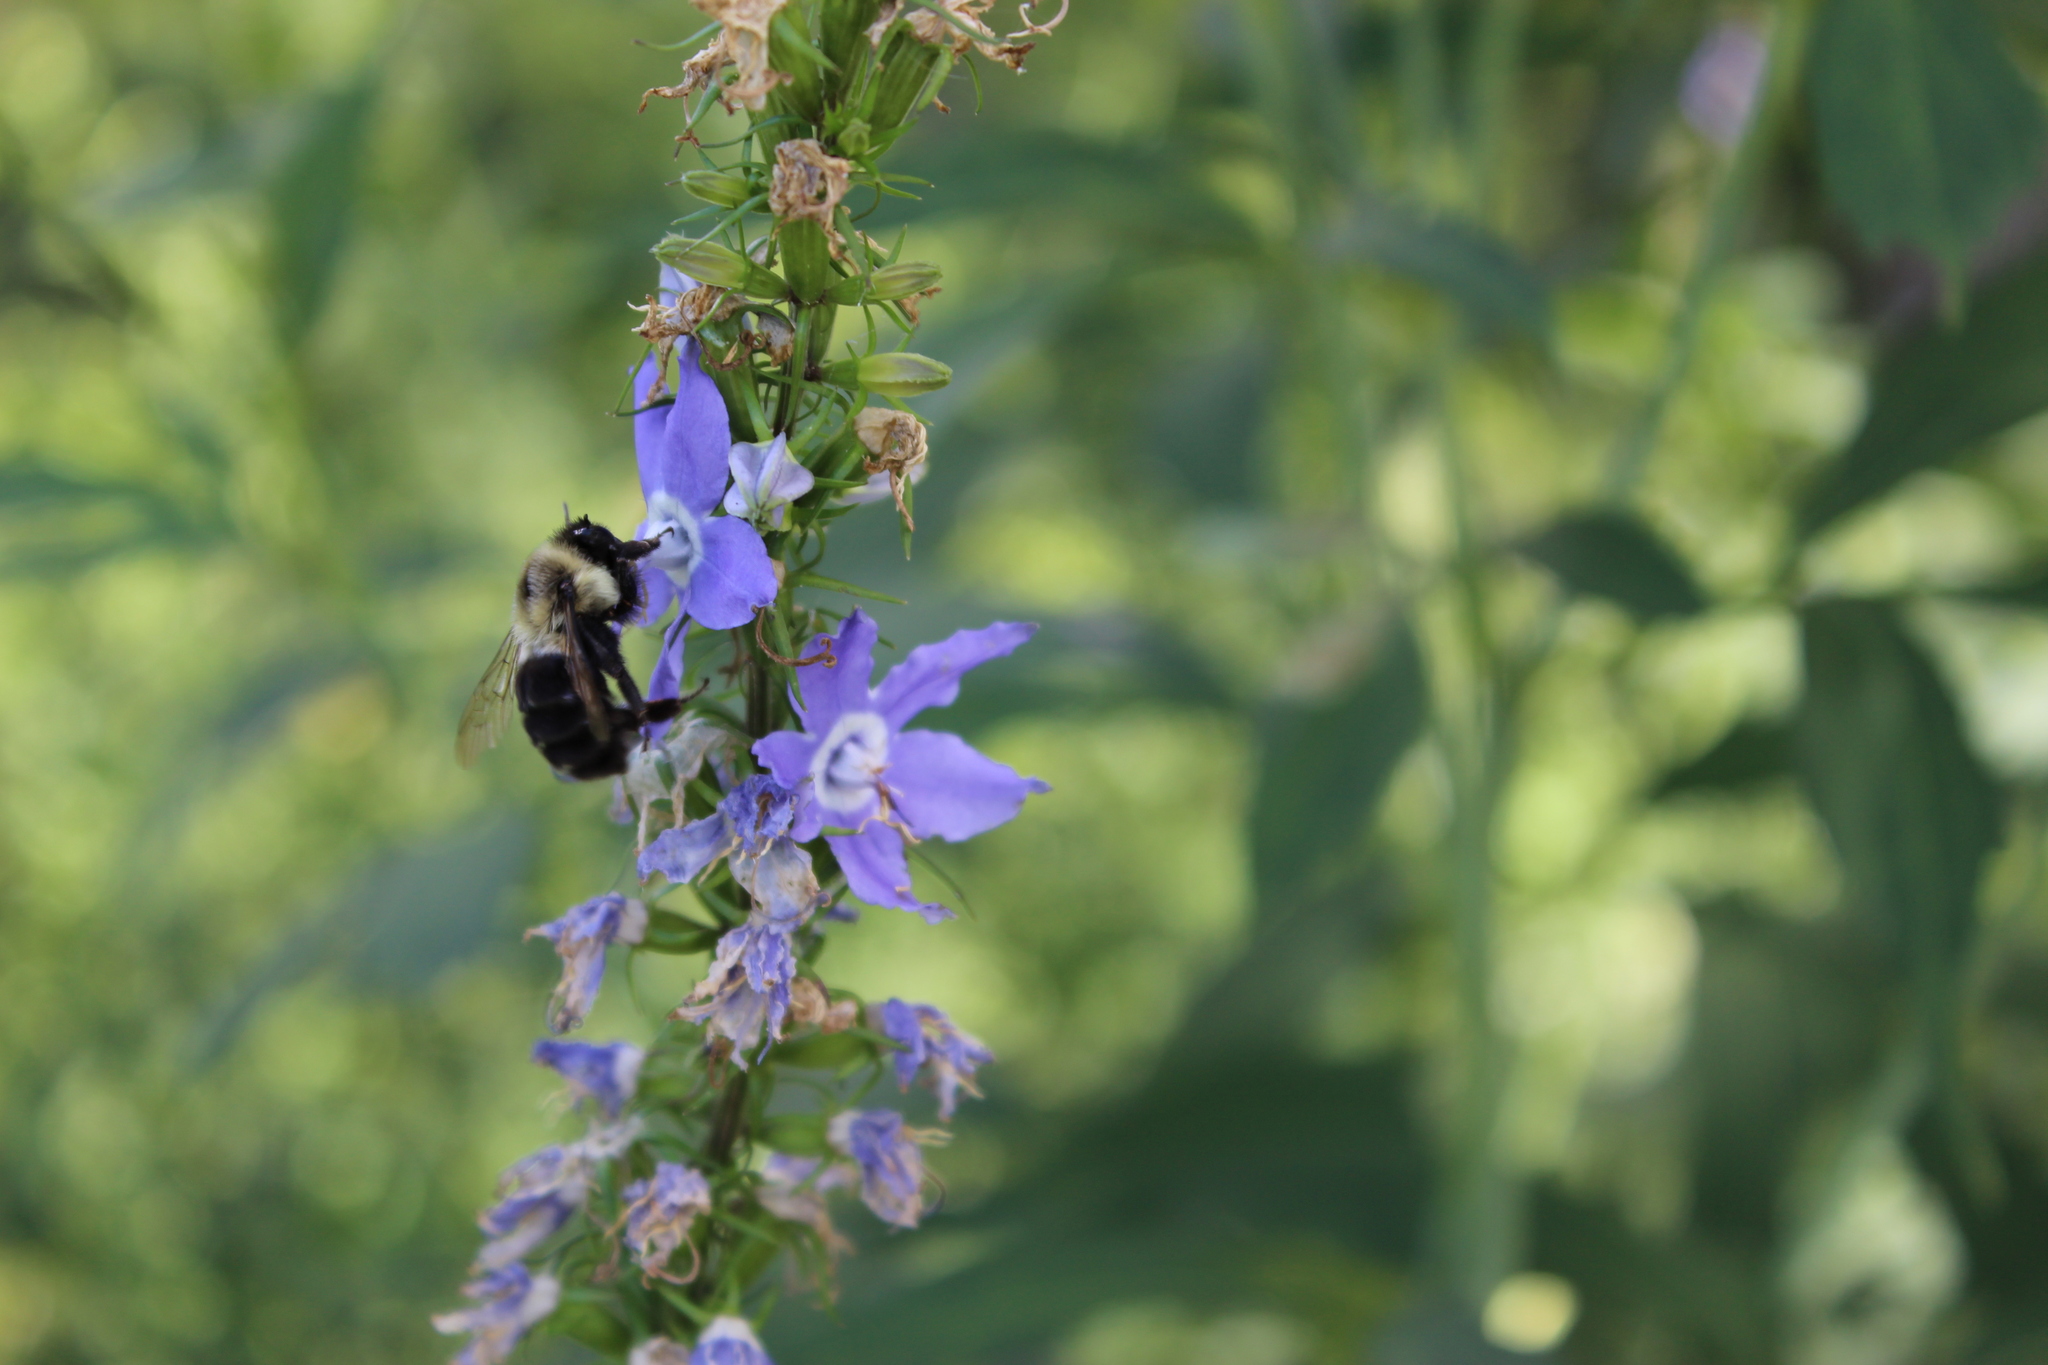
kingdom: Plantae
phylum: Tracheophyta
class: Magnoliopsida
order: Asterales
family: Campanulaceae
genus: Campanulastrum
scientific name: Campanulastrum americanum
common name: American bellflower
